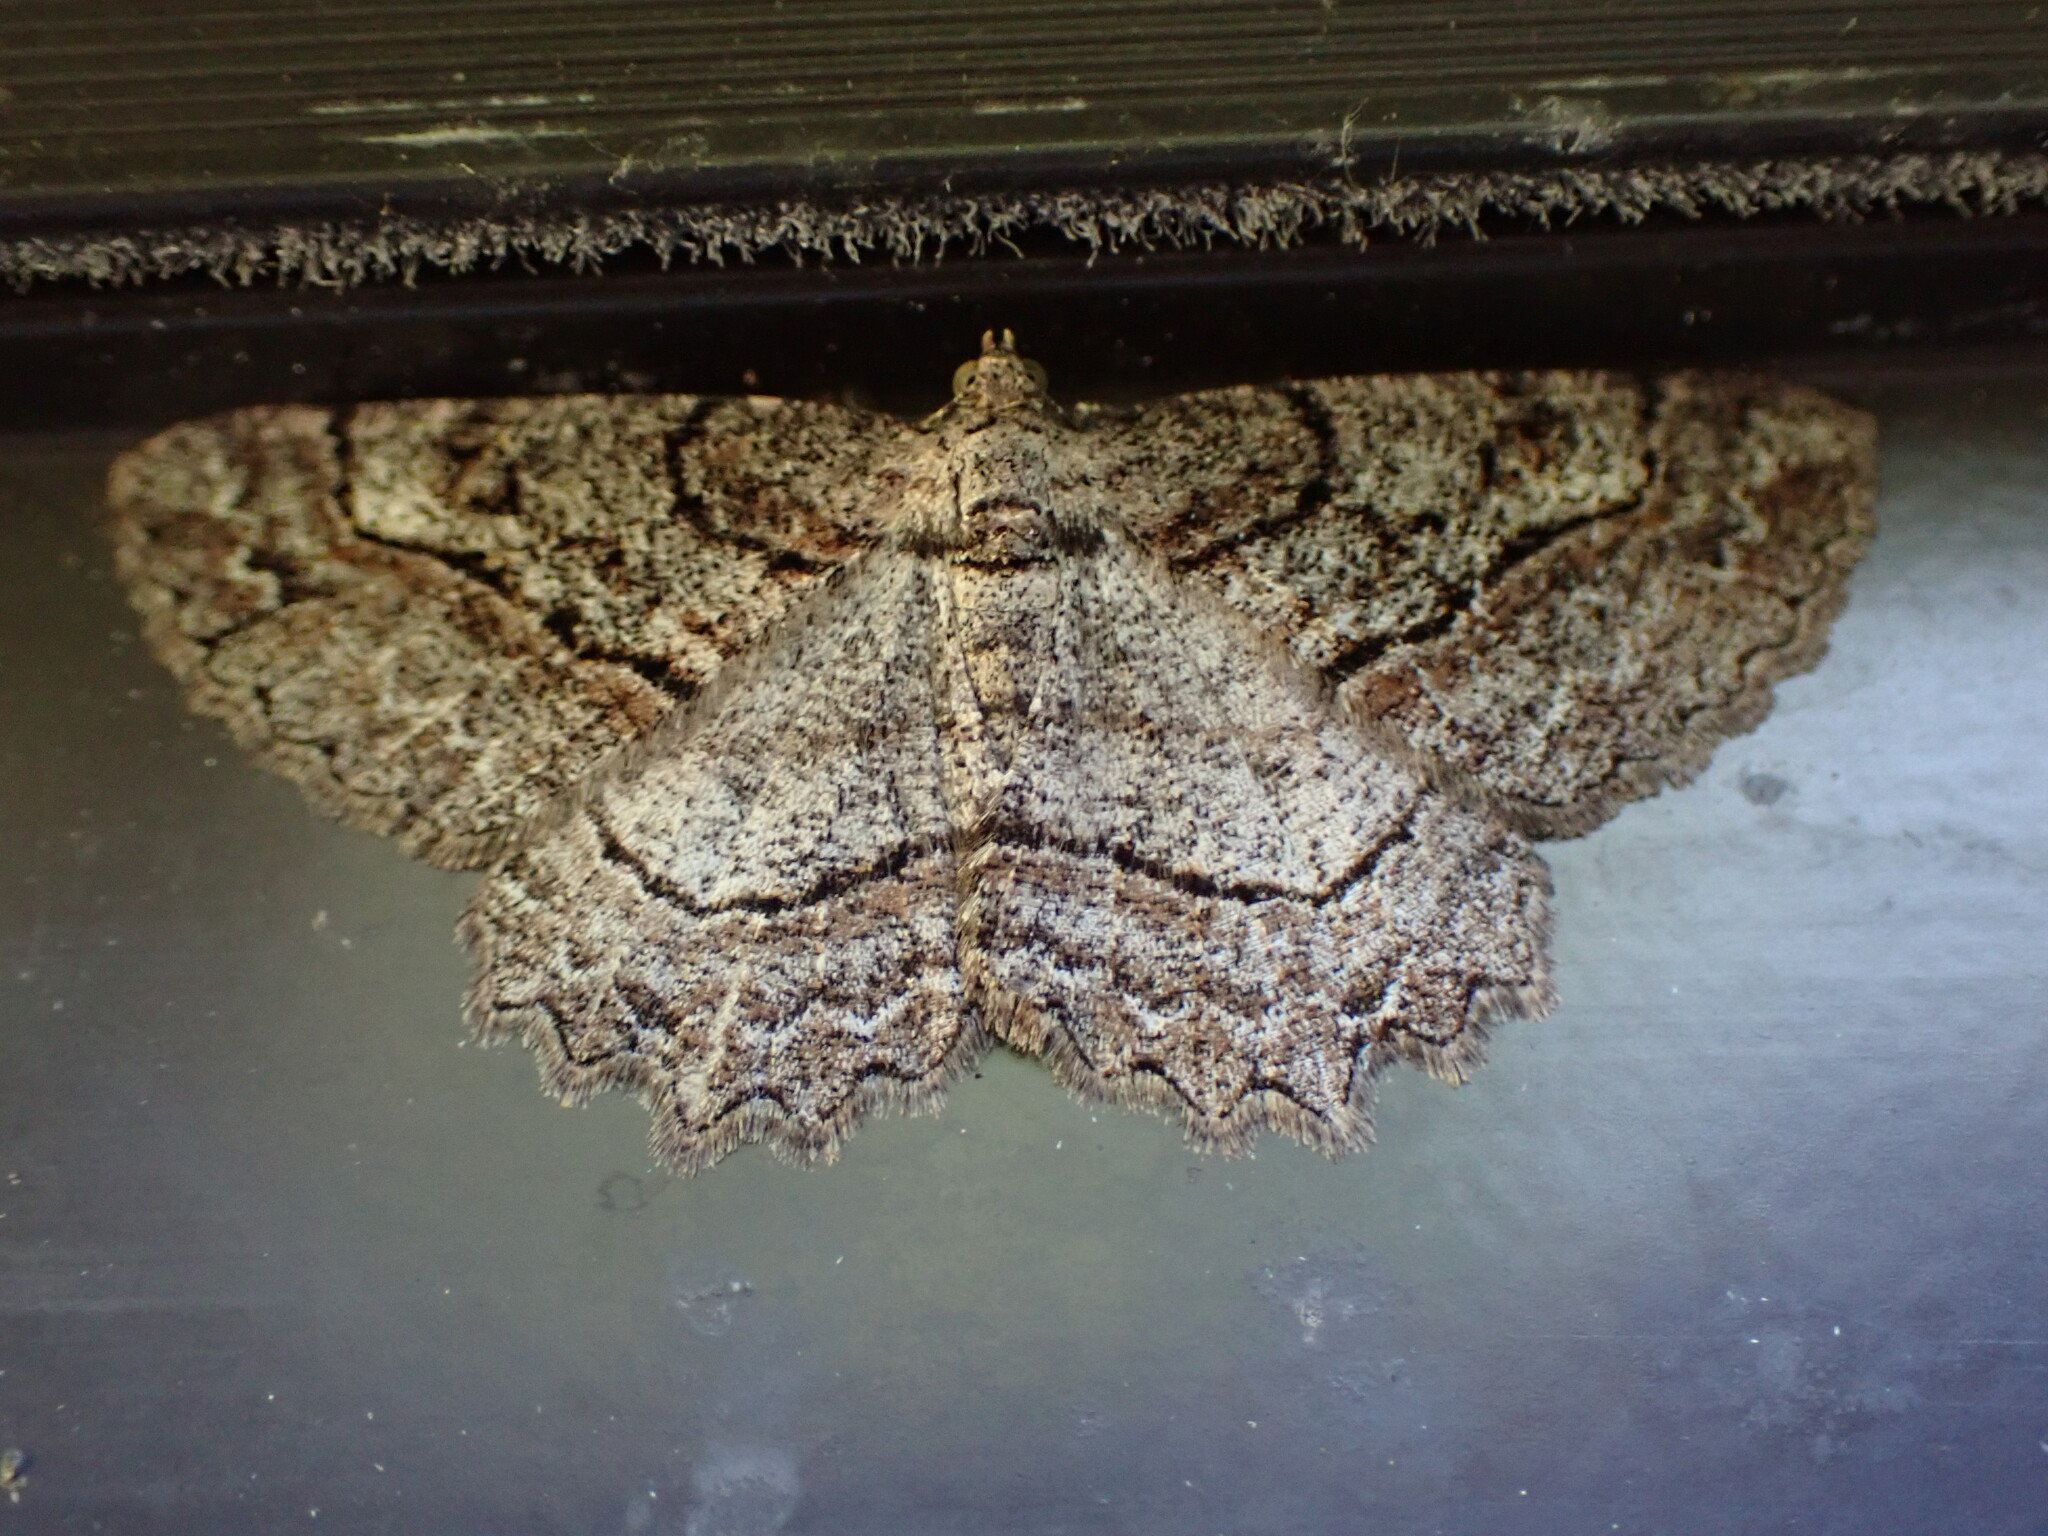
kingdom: Animalia
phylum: Arthropoda
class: Insecta
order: Lepidoptera
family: Geometridae
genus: Neoalcis
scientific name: Neoalcis californiaria
